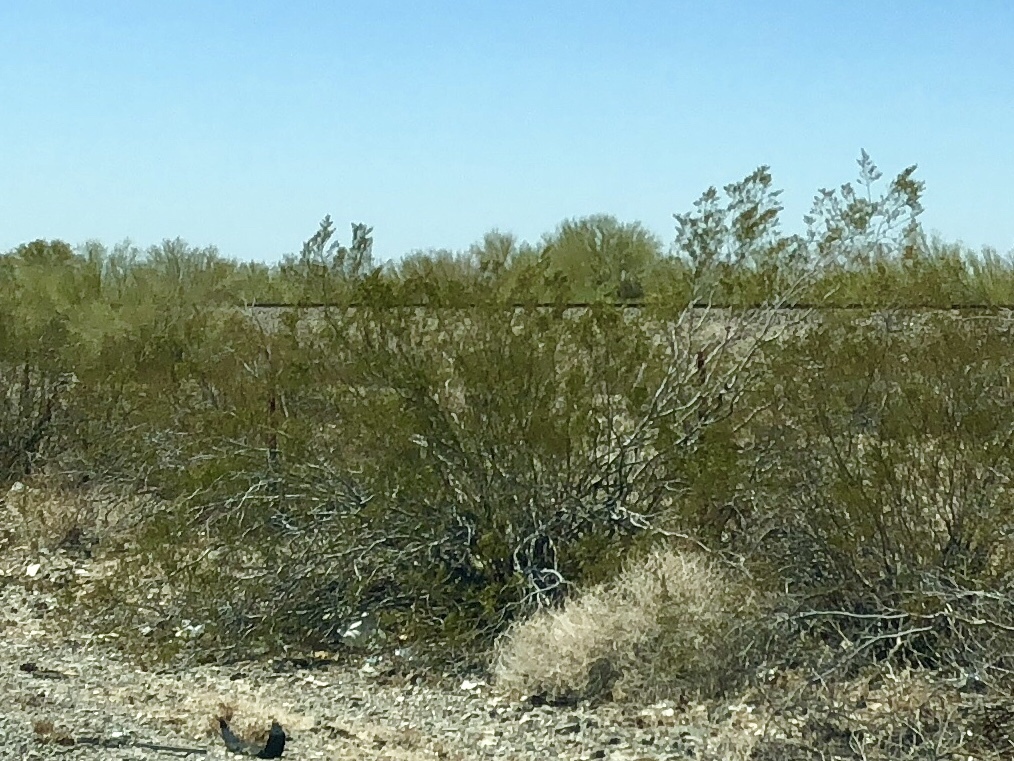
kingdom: Plantae
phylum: Tracheophyta
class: Magnoliopsida
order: Zygophyllales
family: Zygophyllaceae
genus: Larrea
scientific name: Larrea tridentata
